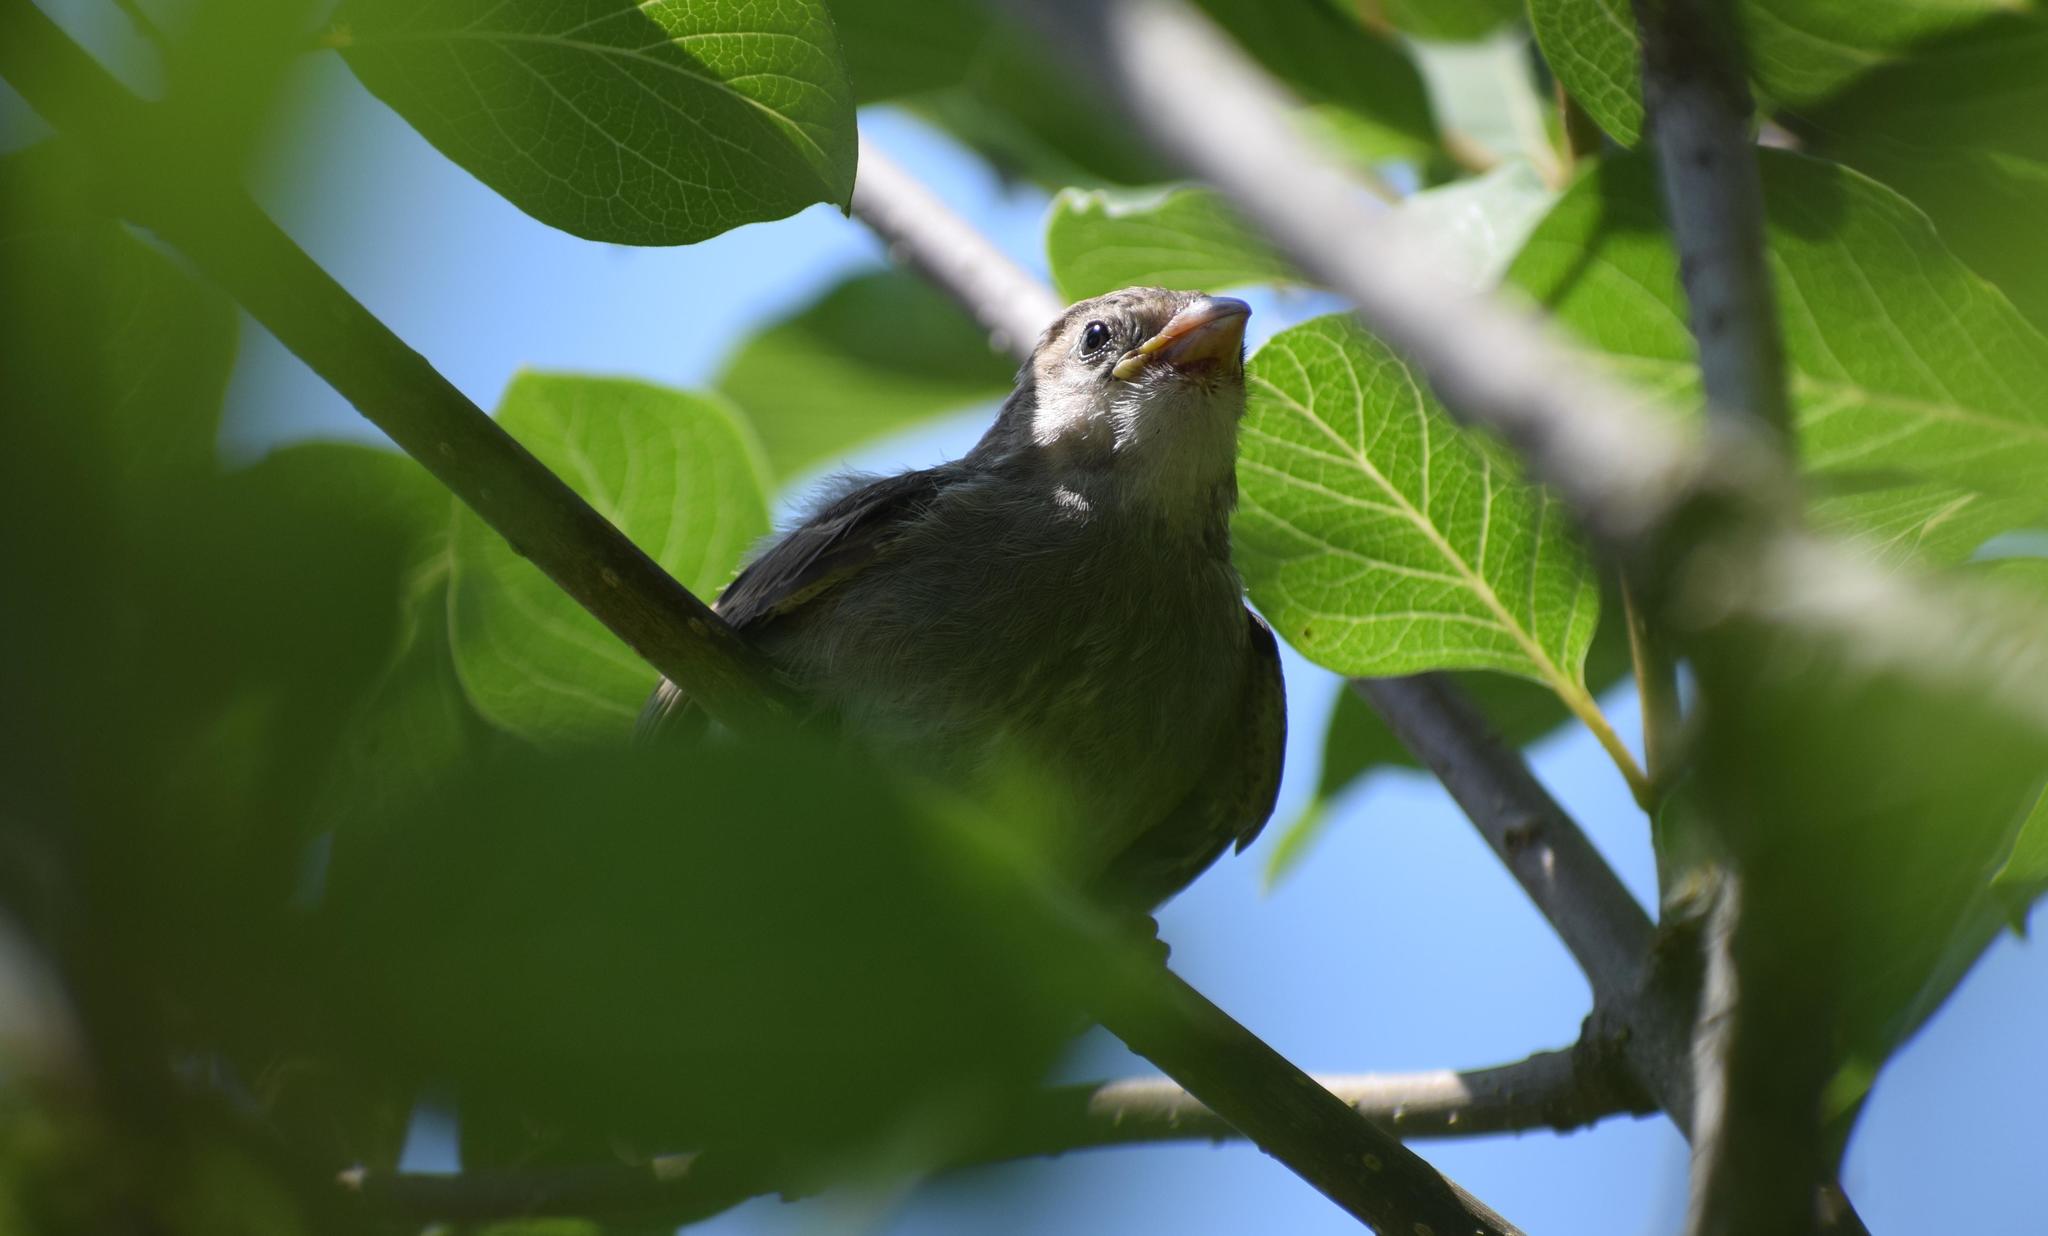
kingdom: Animalia
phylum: Chordata
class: Aves
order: Passeriformes
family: Passeridae
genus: Passer
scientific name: Passer domesticus
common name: House sparrow
